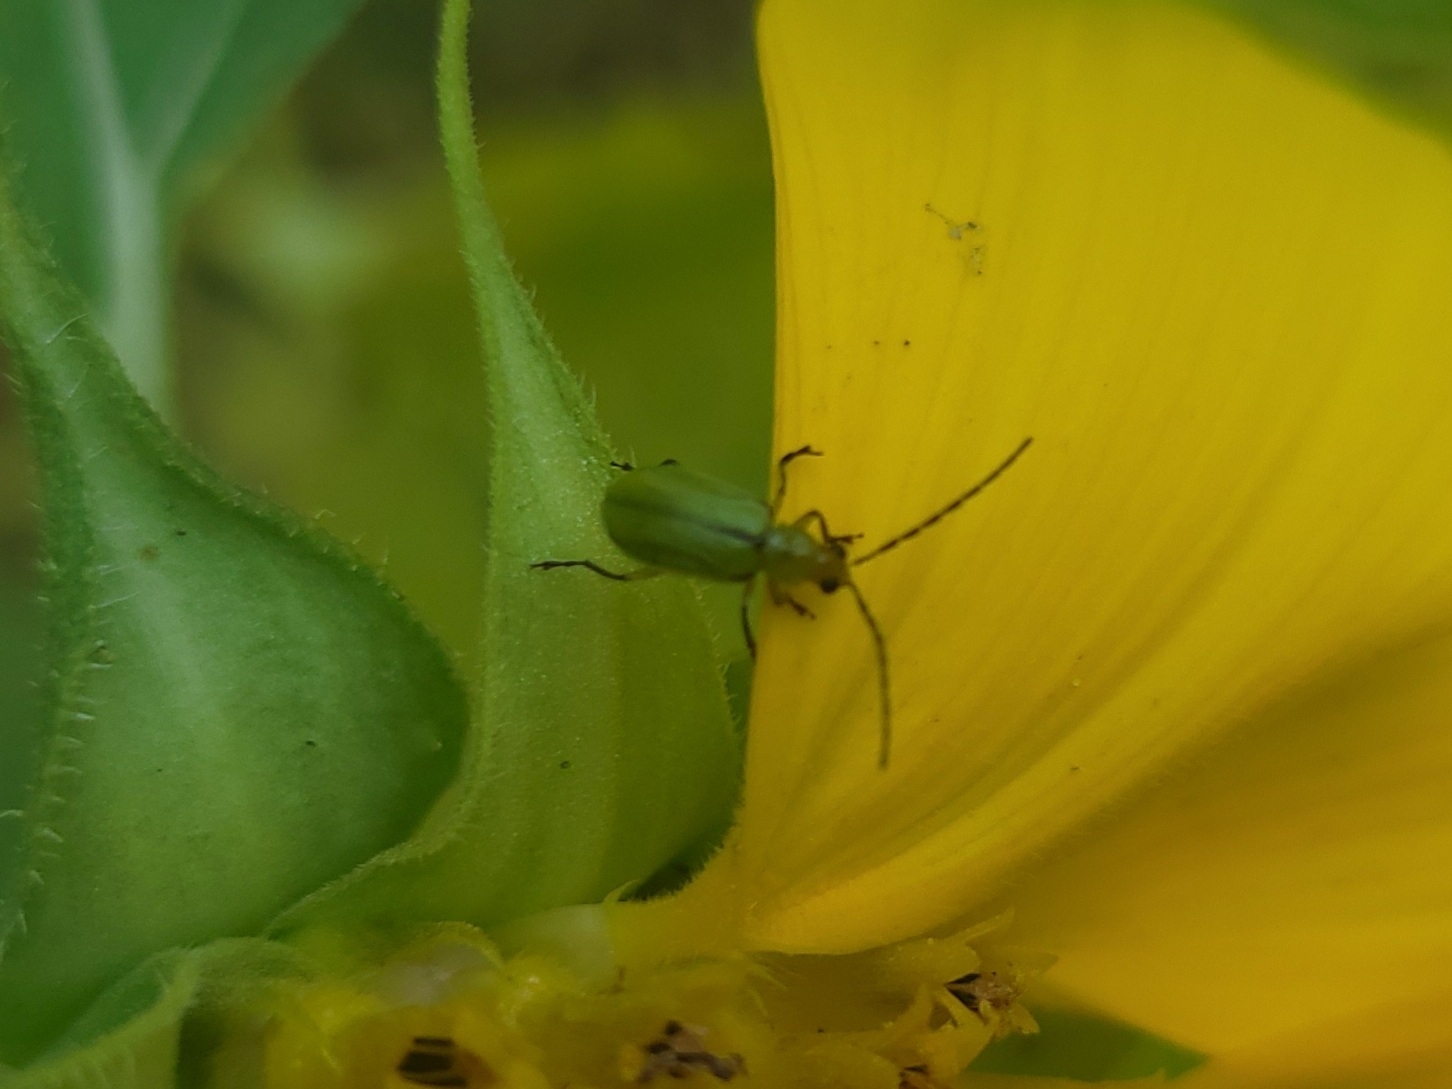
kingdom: Animalia
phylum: Arthropoda
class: Insecta
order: Coleoptera
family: Chrysomelidae
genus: Diabrotica
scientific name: Diabrotica barberi
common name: Northern corn rootworm
